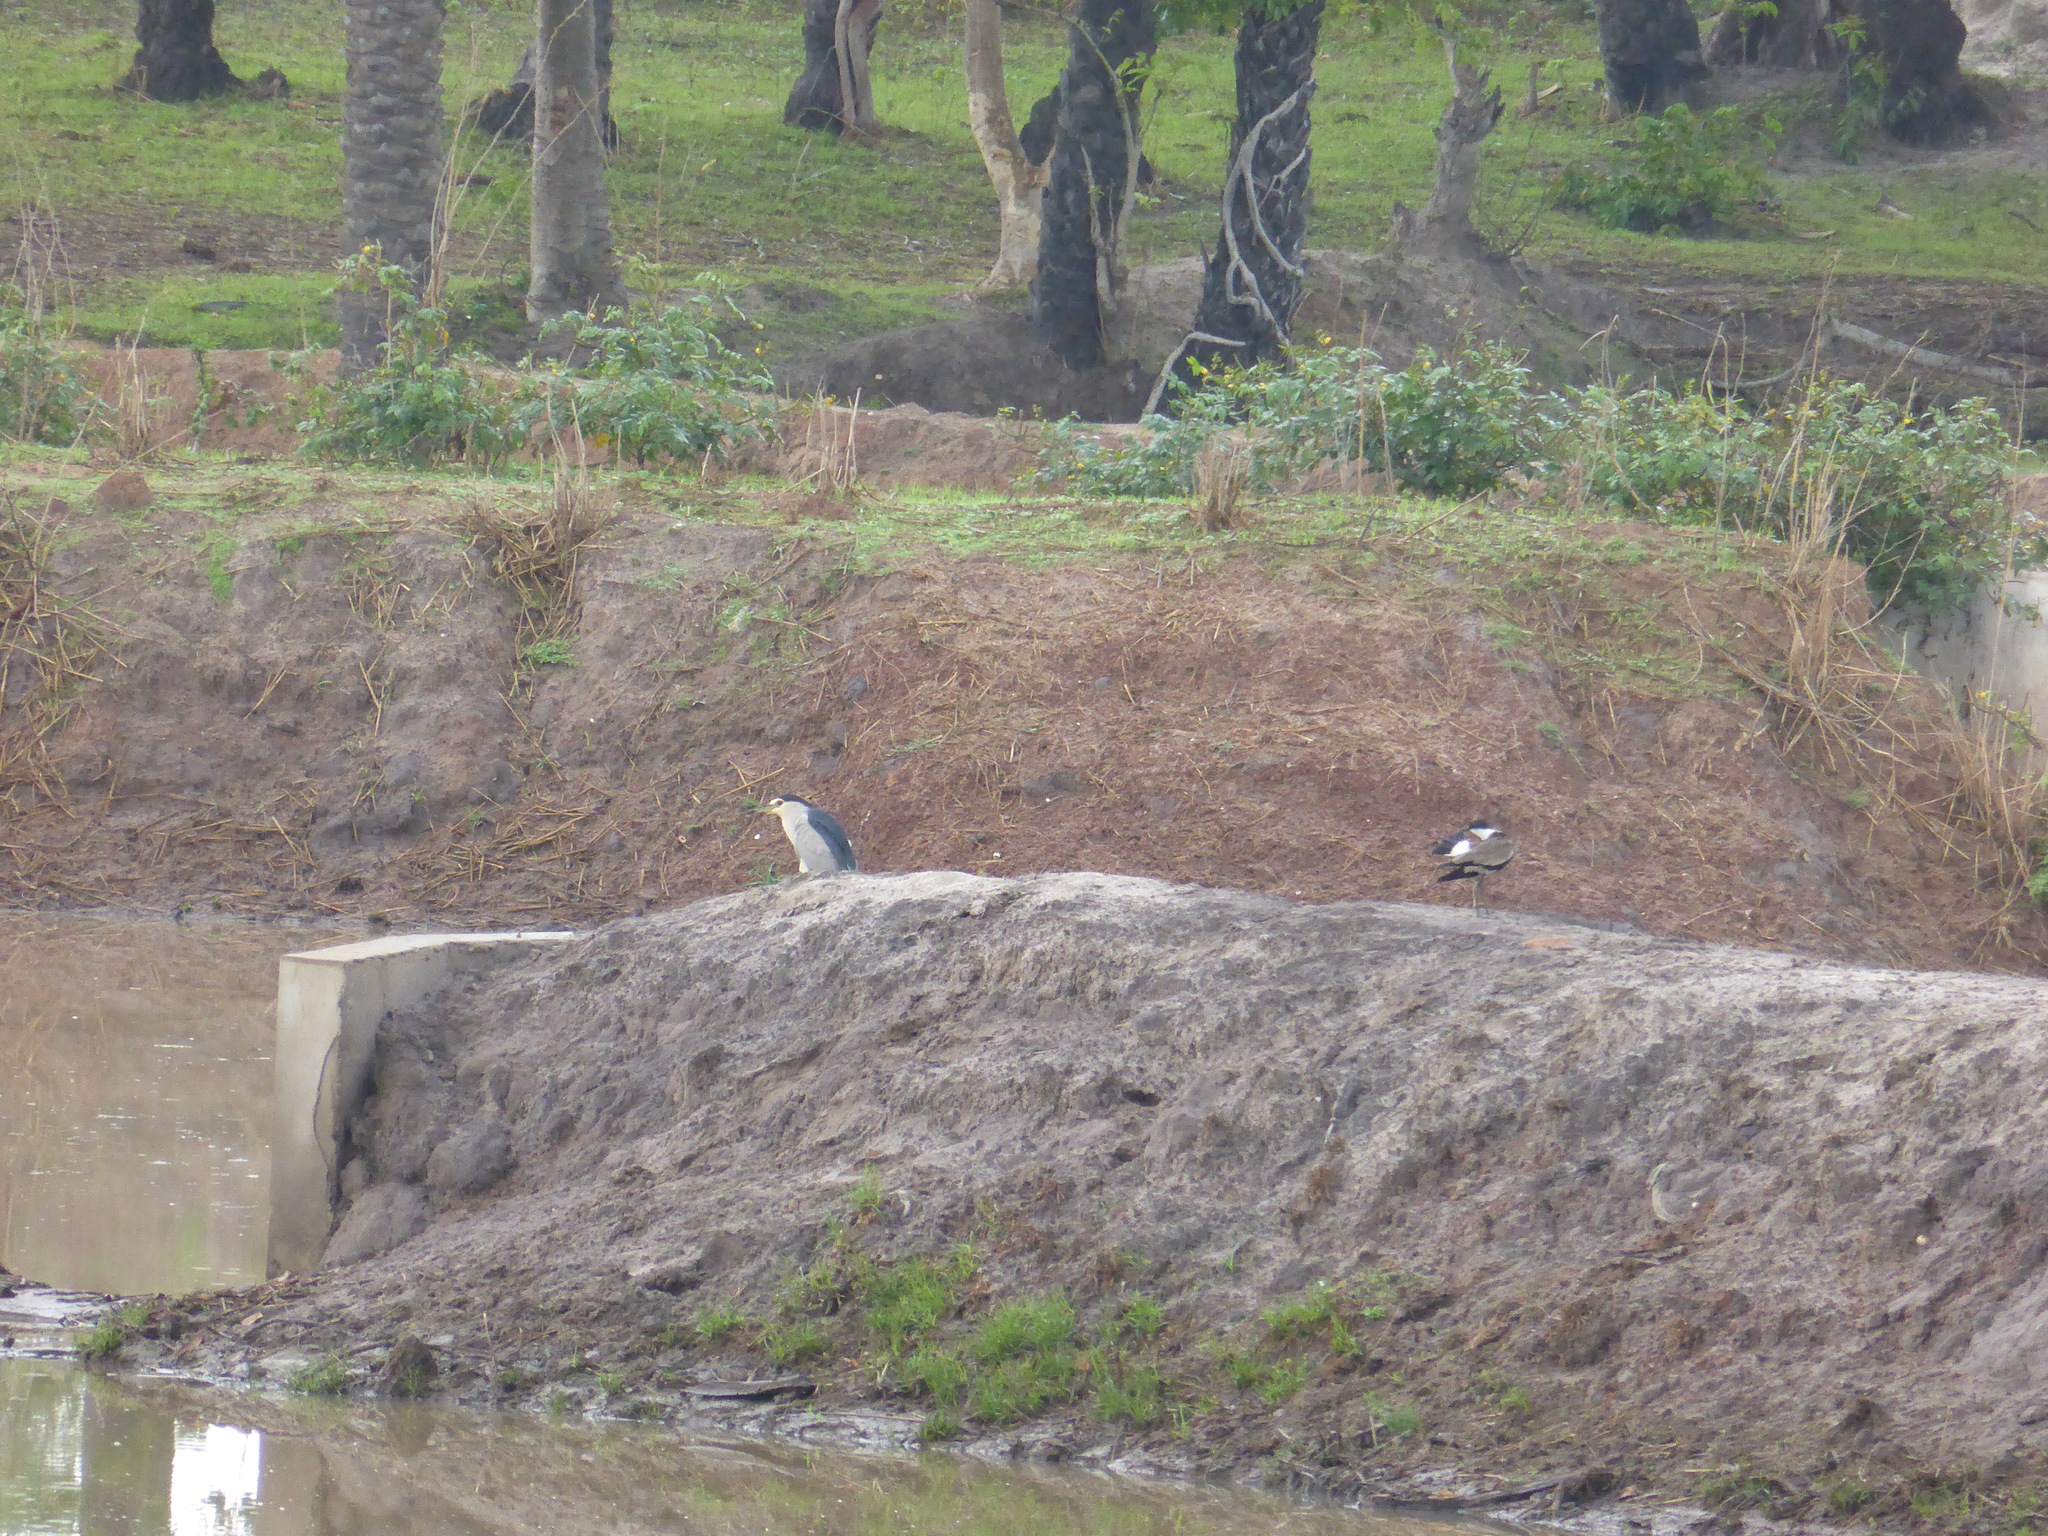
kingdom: Animalia
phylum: Chordata
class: Aves
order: Pelecaniformes
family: Ardeidae
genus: Nycticorax
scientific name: Nycticorax nycticorax
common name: Black-crowned night heron
